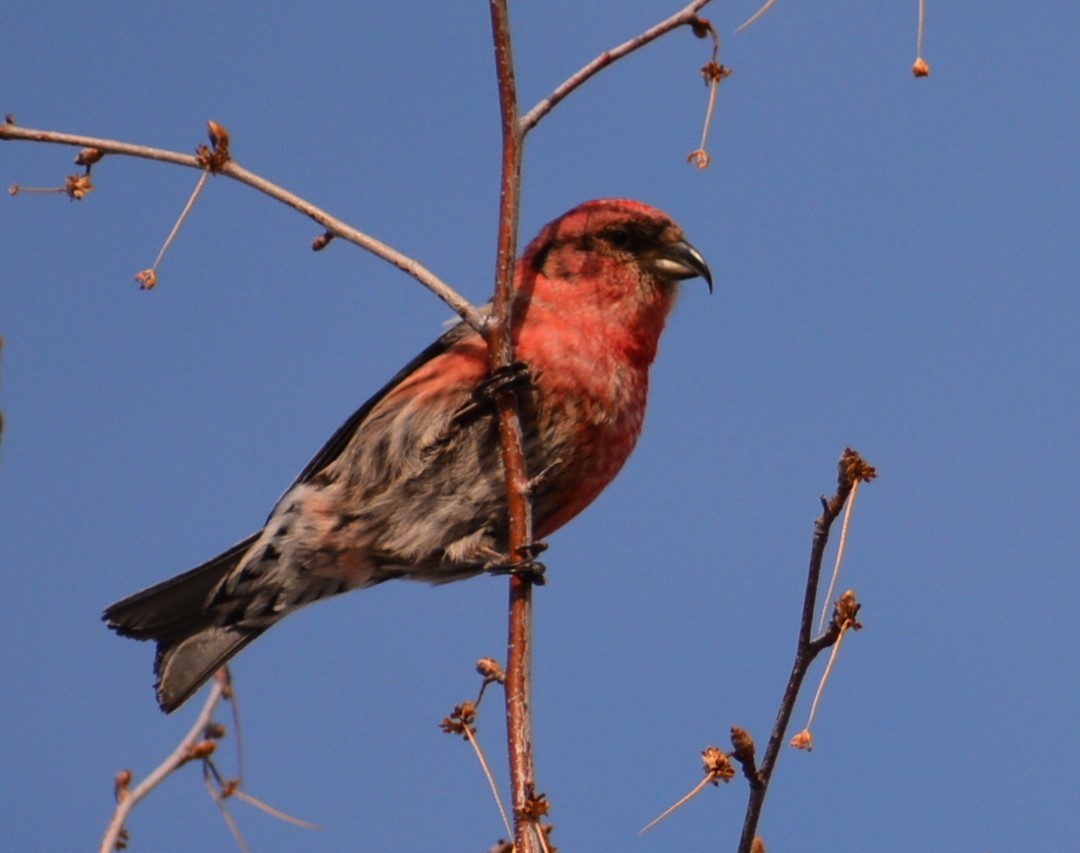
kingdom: Animalia
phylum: Chordata
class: Aves
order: Passeriformes
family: Fringillidae
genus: Loxia
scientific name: Loxia leucoptera
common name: Two-barred crossbill
